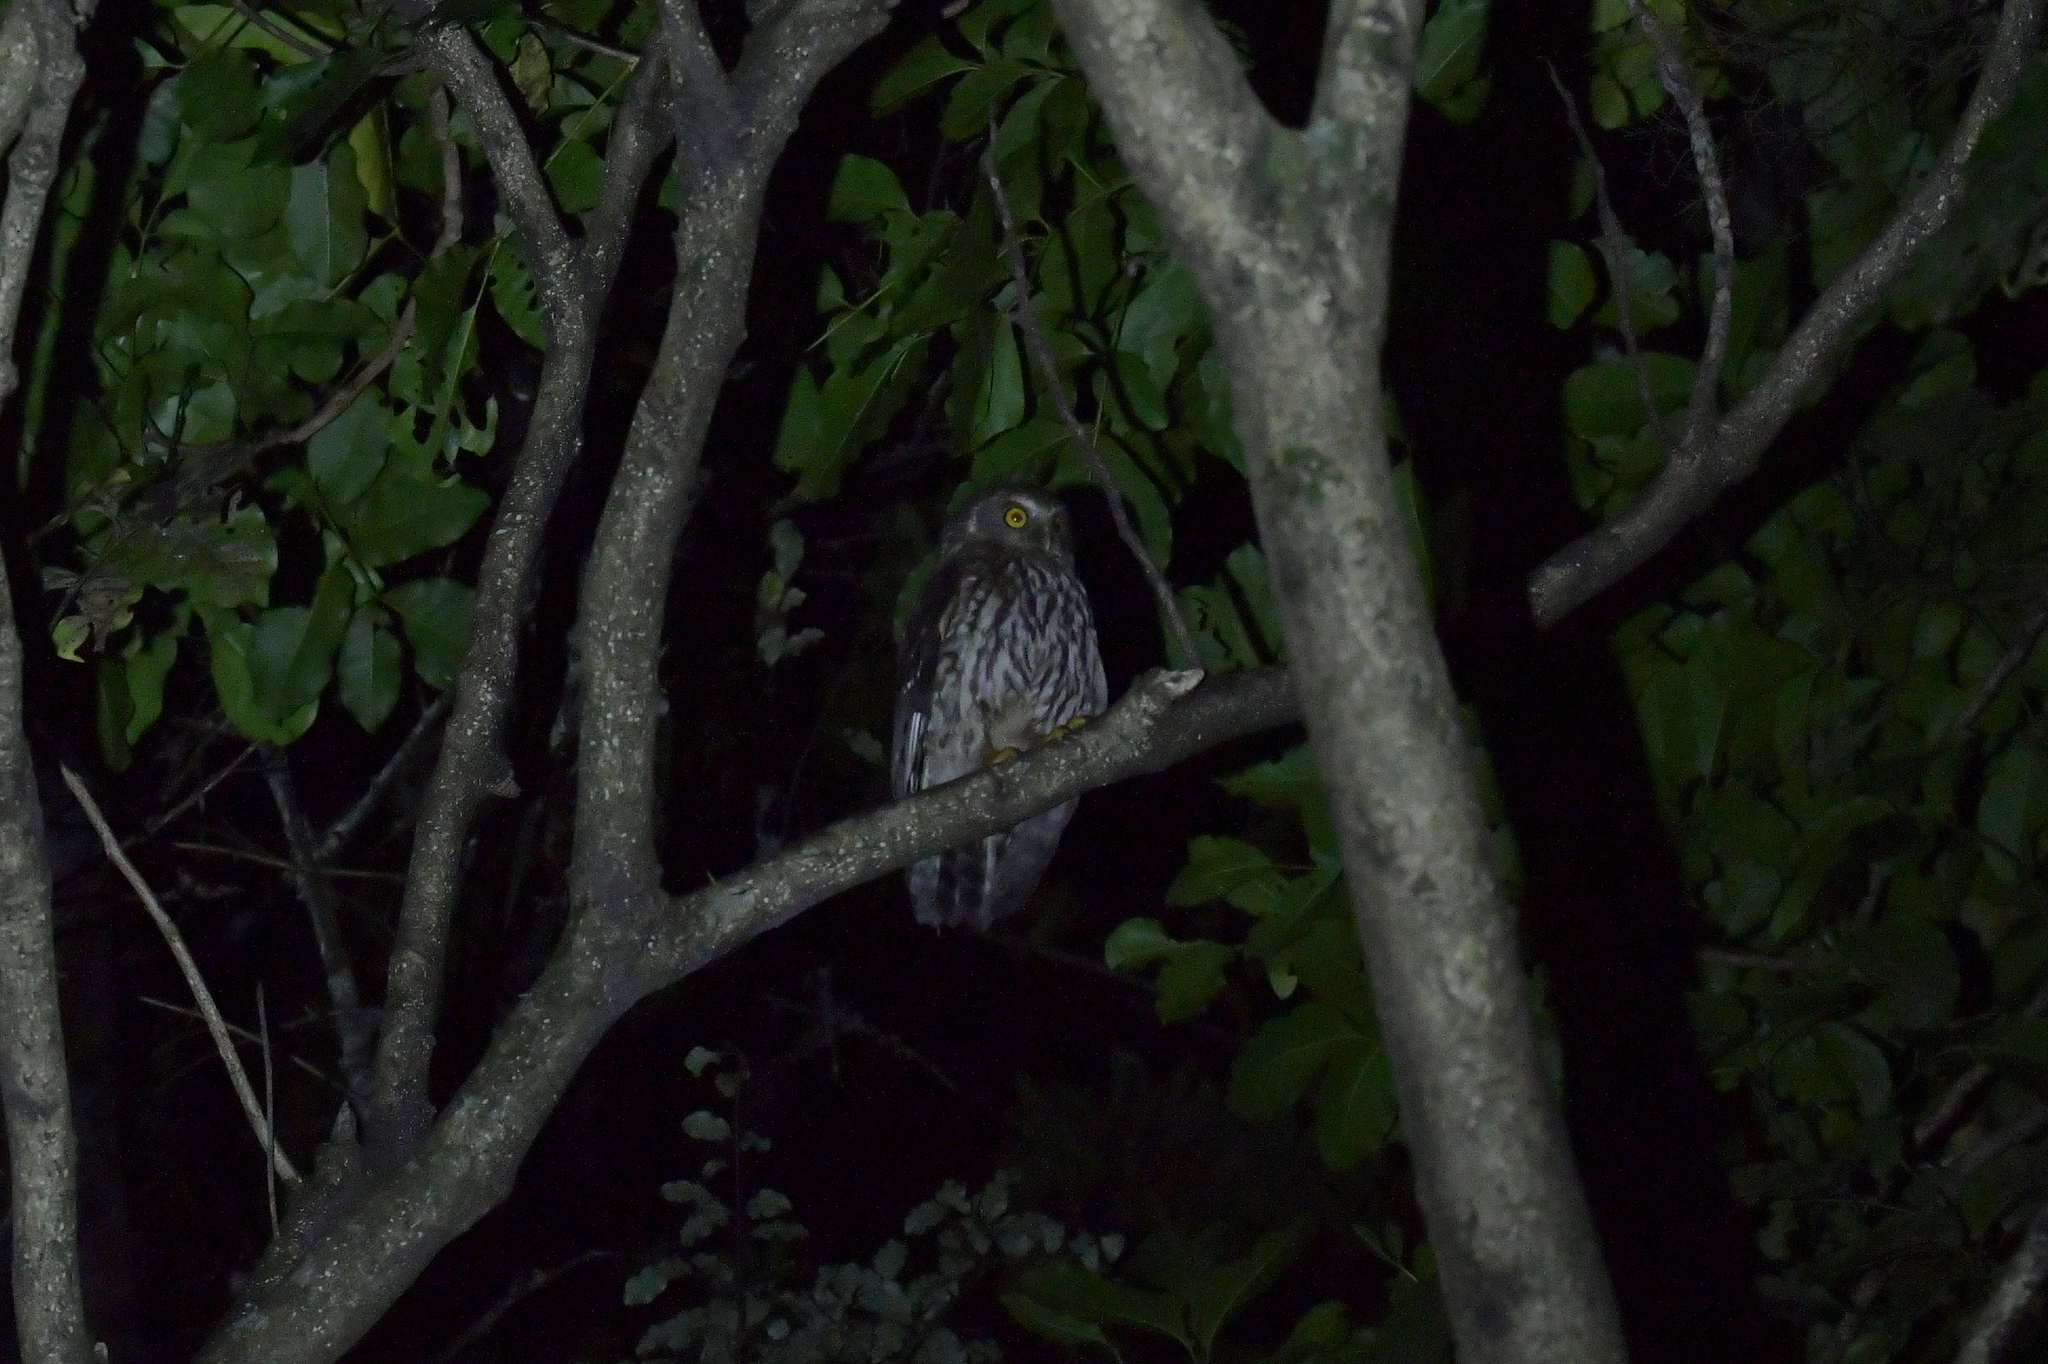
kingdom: Animalia
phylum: Chordata
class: Aves
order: Strigiformes
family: Strigidae
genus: Ninox
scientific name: Ninox novaeseelandiae
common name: Morepork
